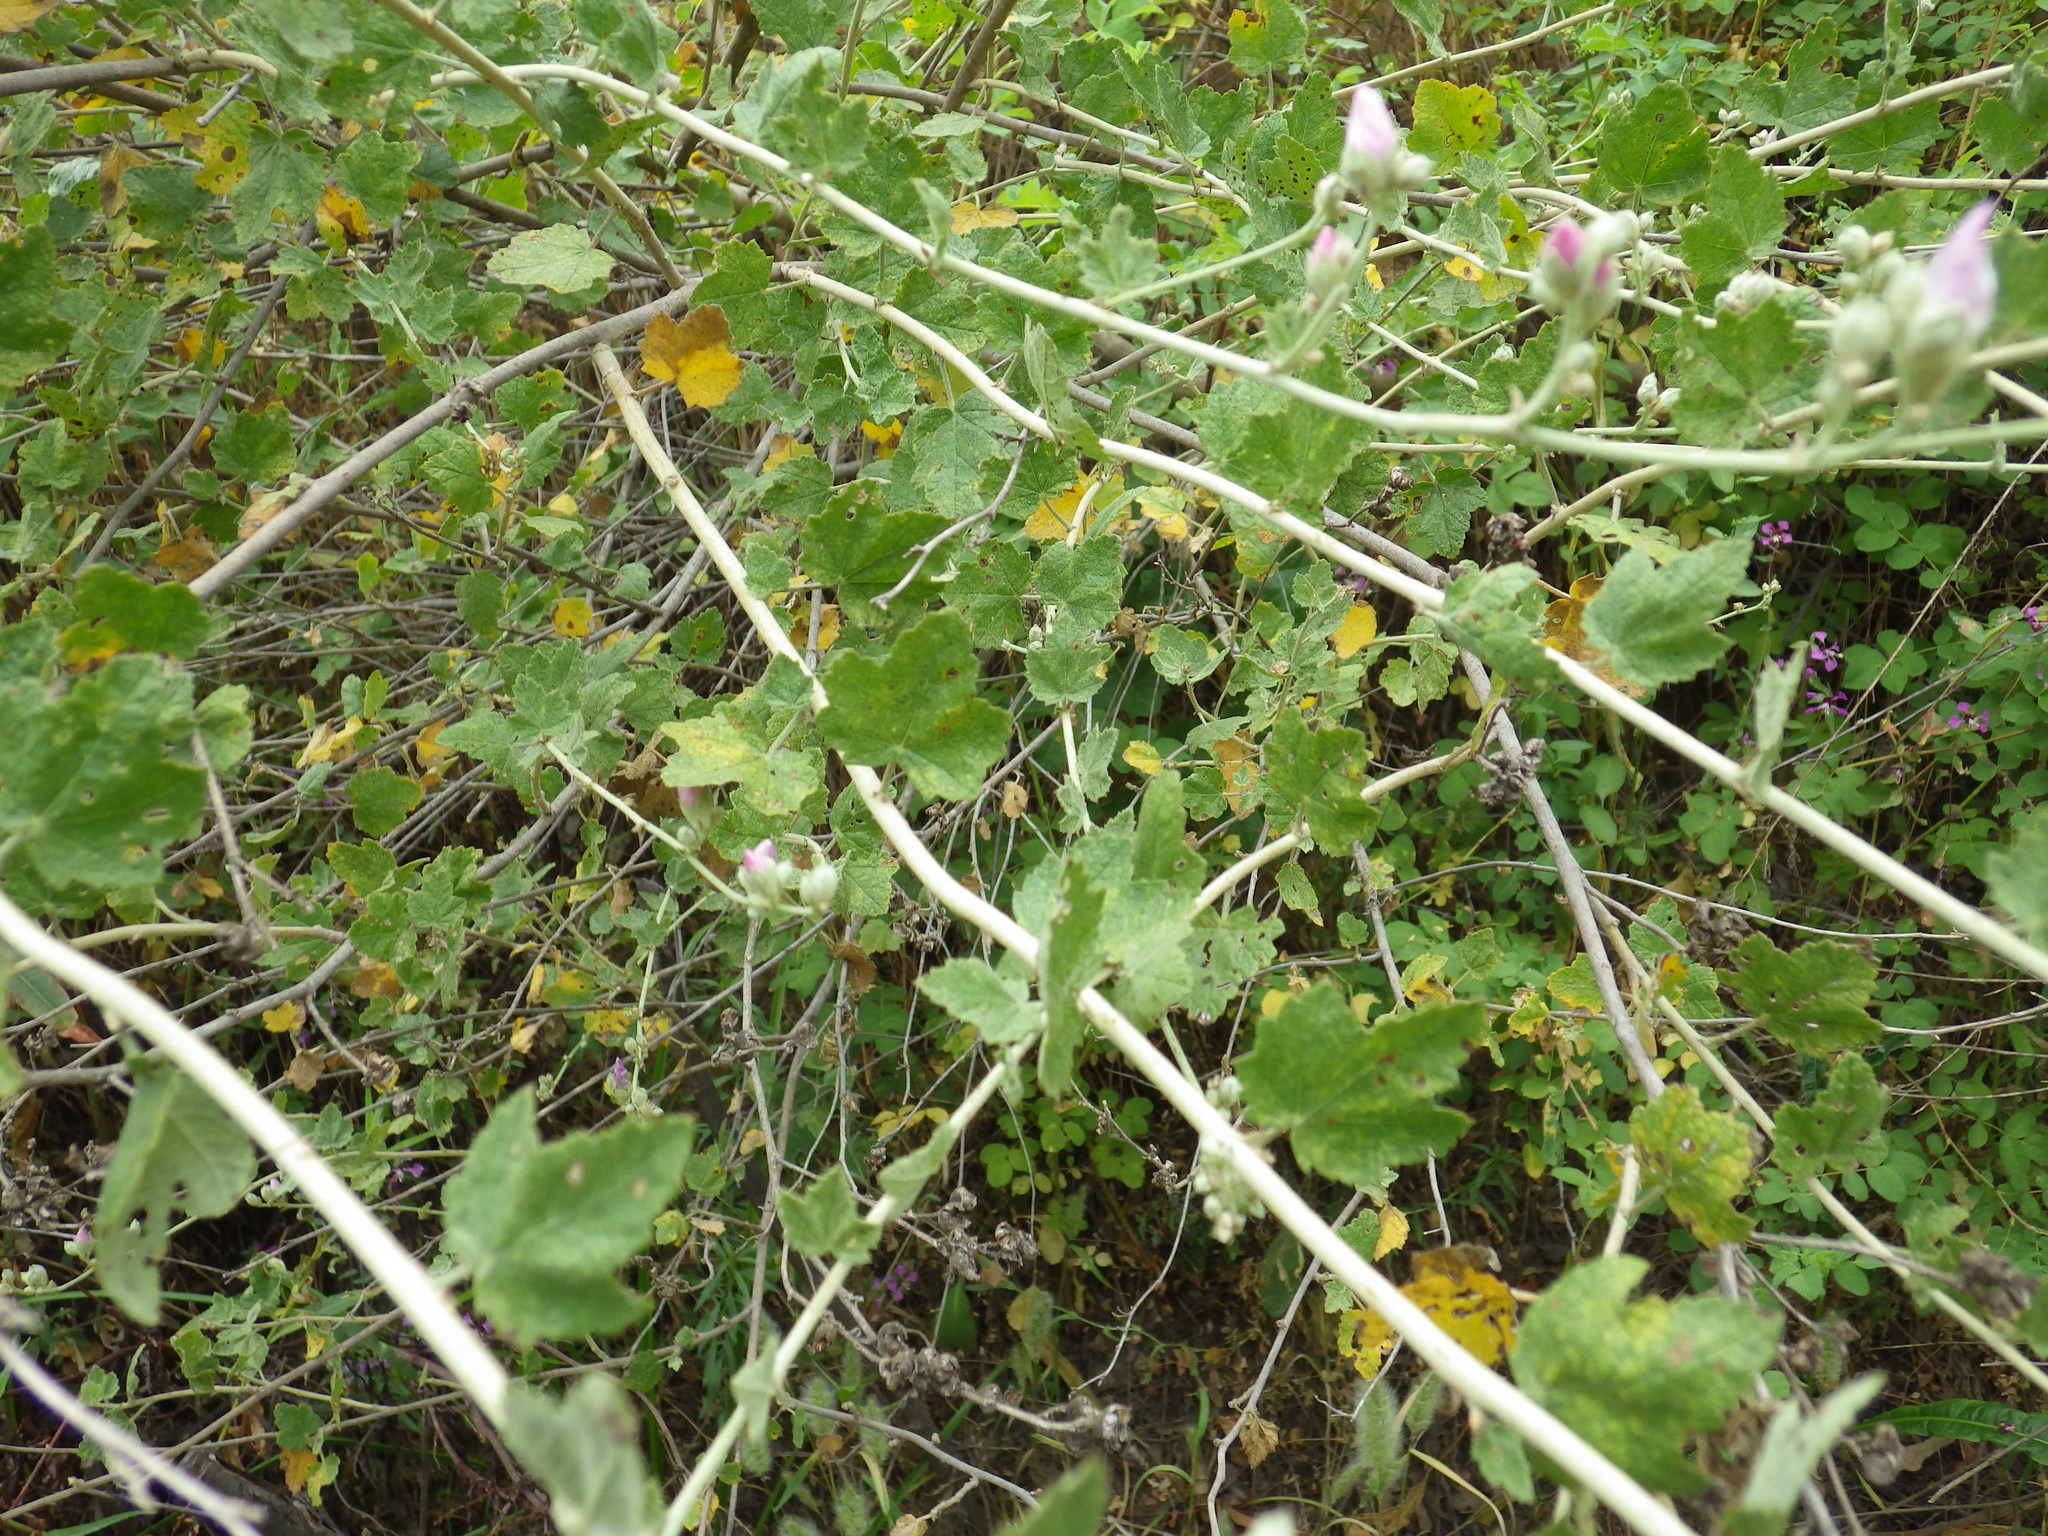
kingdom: Plantae
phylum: Tracheophyta
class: Magnoliopsida
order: Malvales
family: Malvaceae
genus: Malacothamnus
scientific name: Malacothamnus fasciculatus
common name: Sant cruz island bush-mallow
